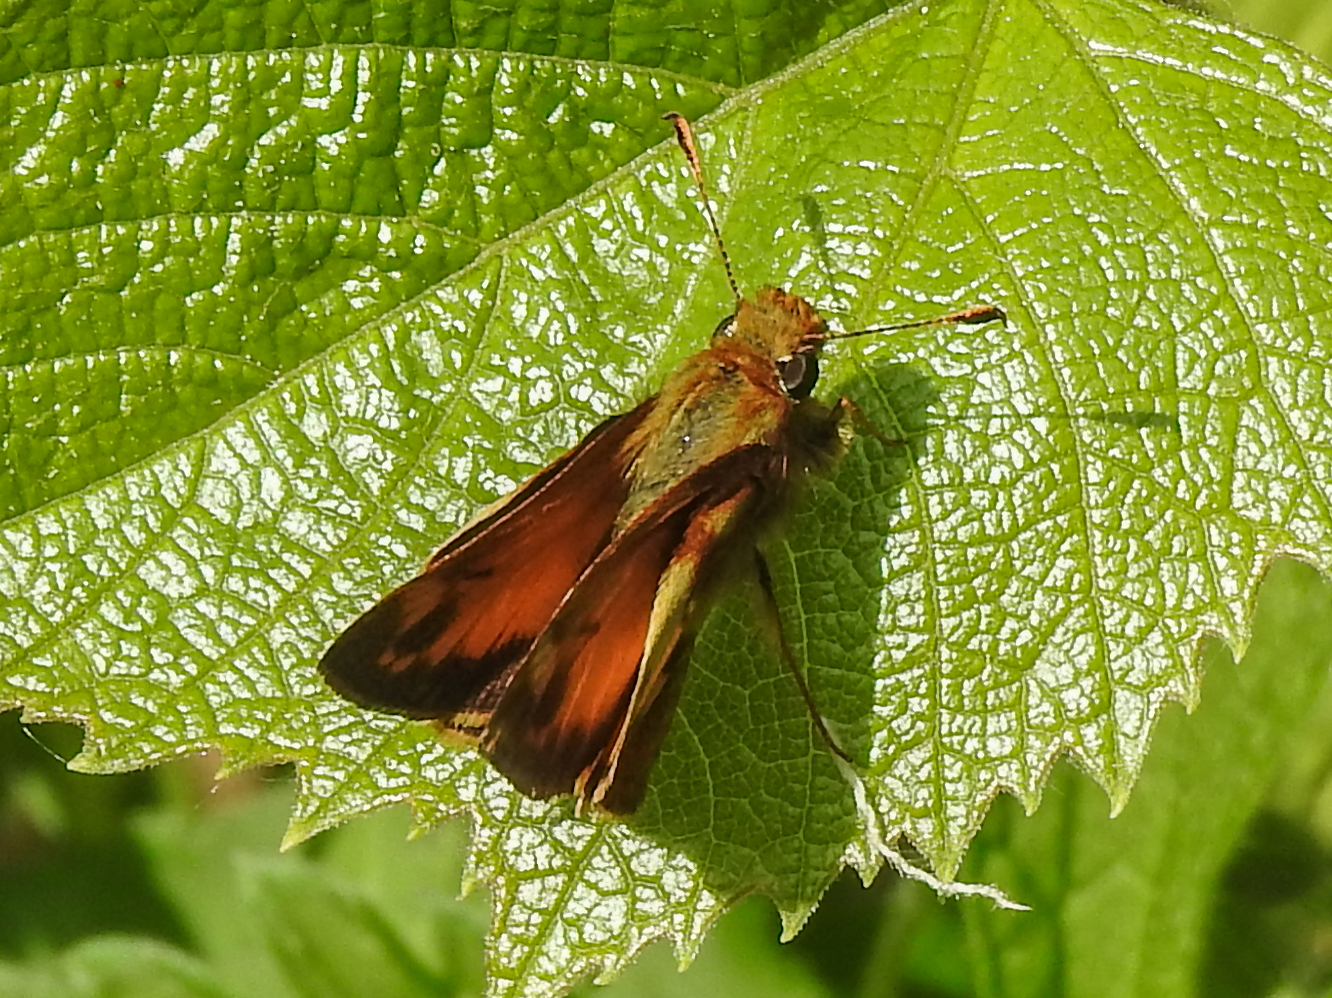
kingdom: Animalia
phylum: Arthropoda
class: Insecta
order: Lepidoptera
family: Hesperiidae
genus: Lon
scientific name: Lon zabulon
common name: Zabulon skipper
